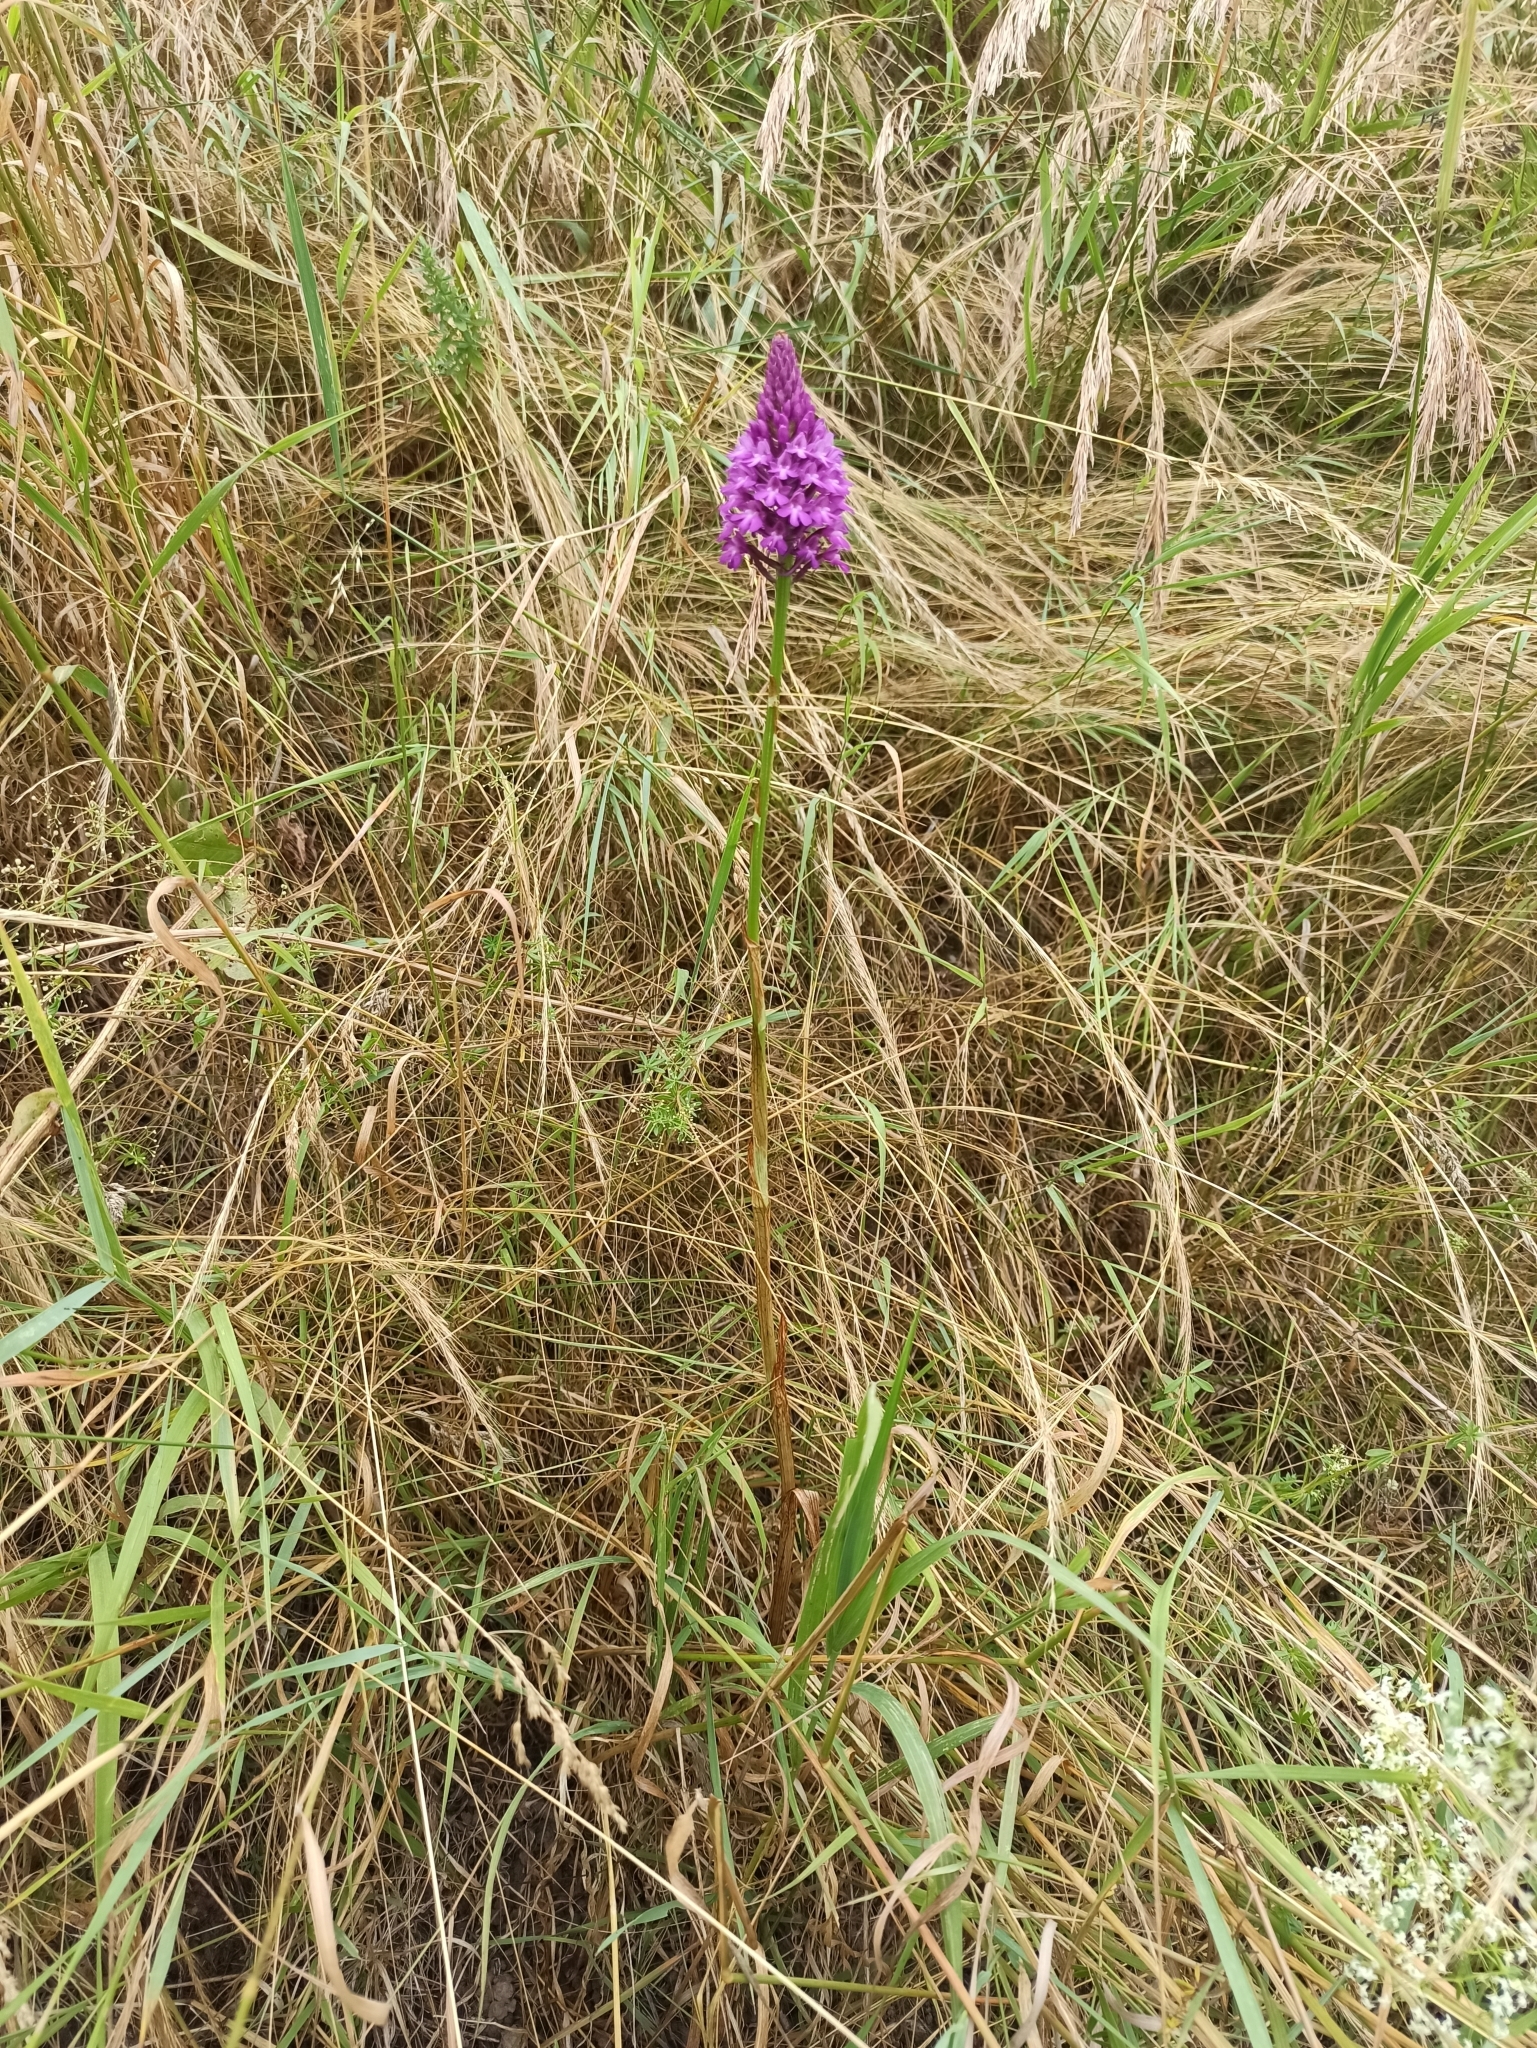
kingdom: Plantae
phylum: Tracheophyta
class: Liliopsida
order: Asparagales
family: Orchidaceae
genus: Anacamptis
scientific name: Anacamptis pyramidalis
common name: Pyramidal orchid
